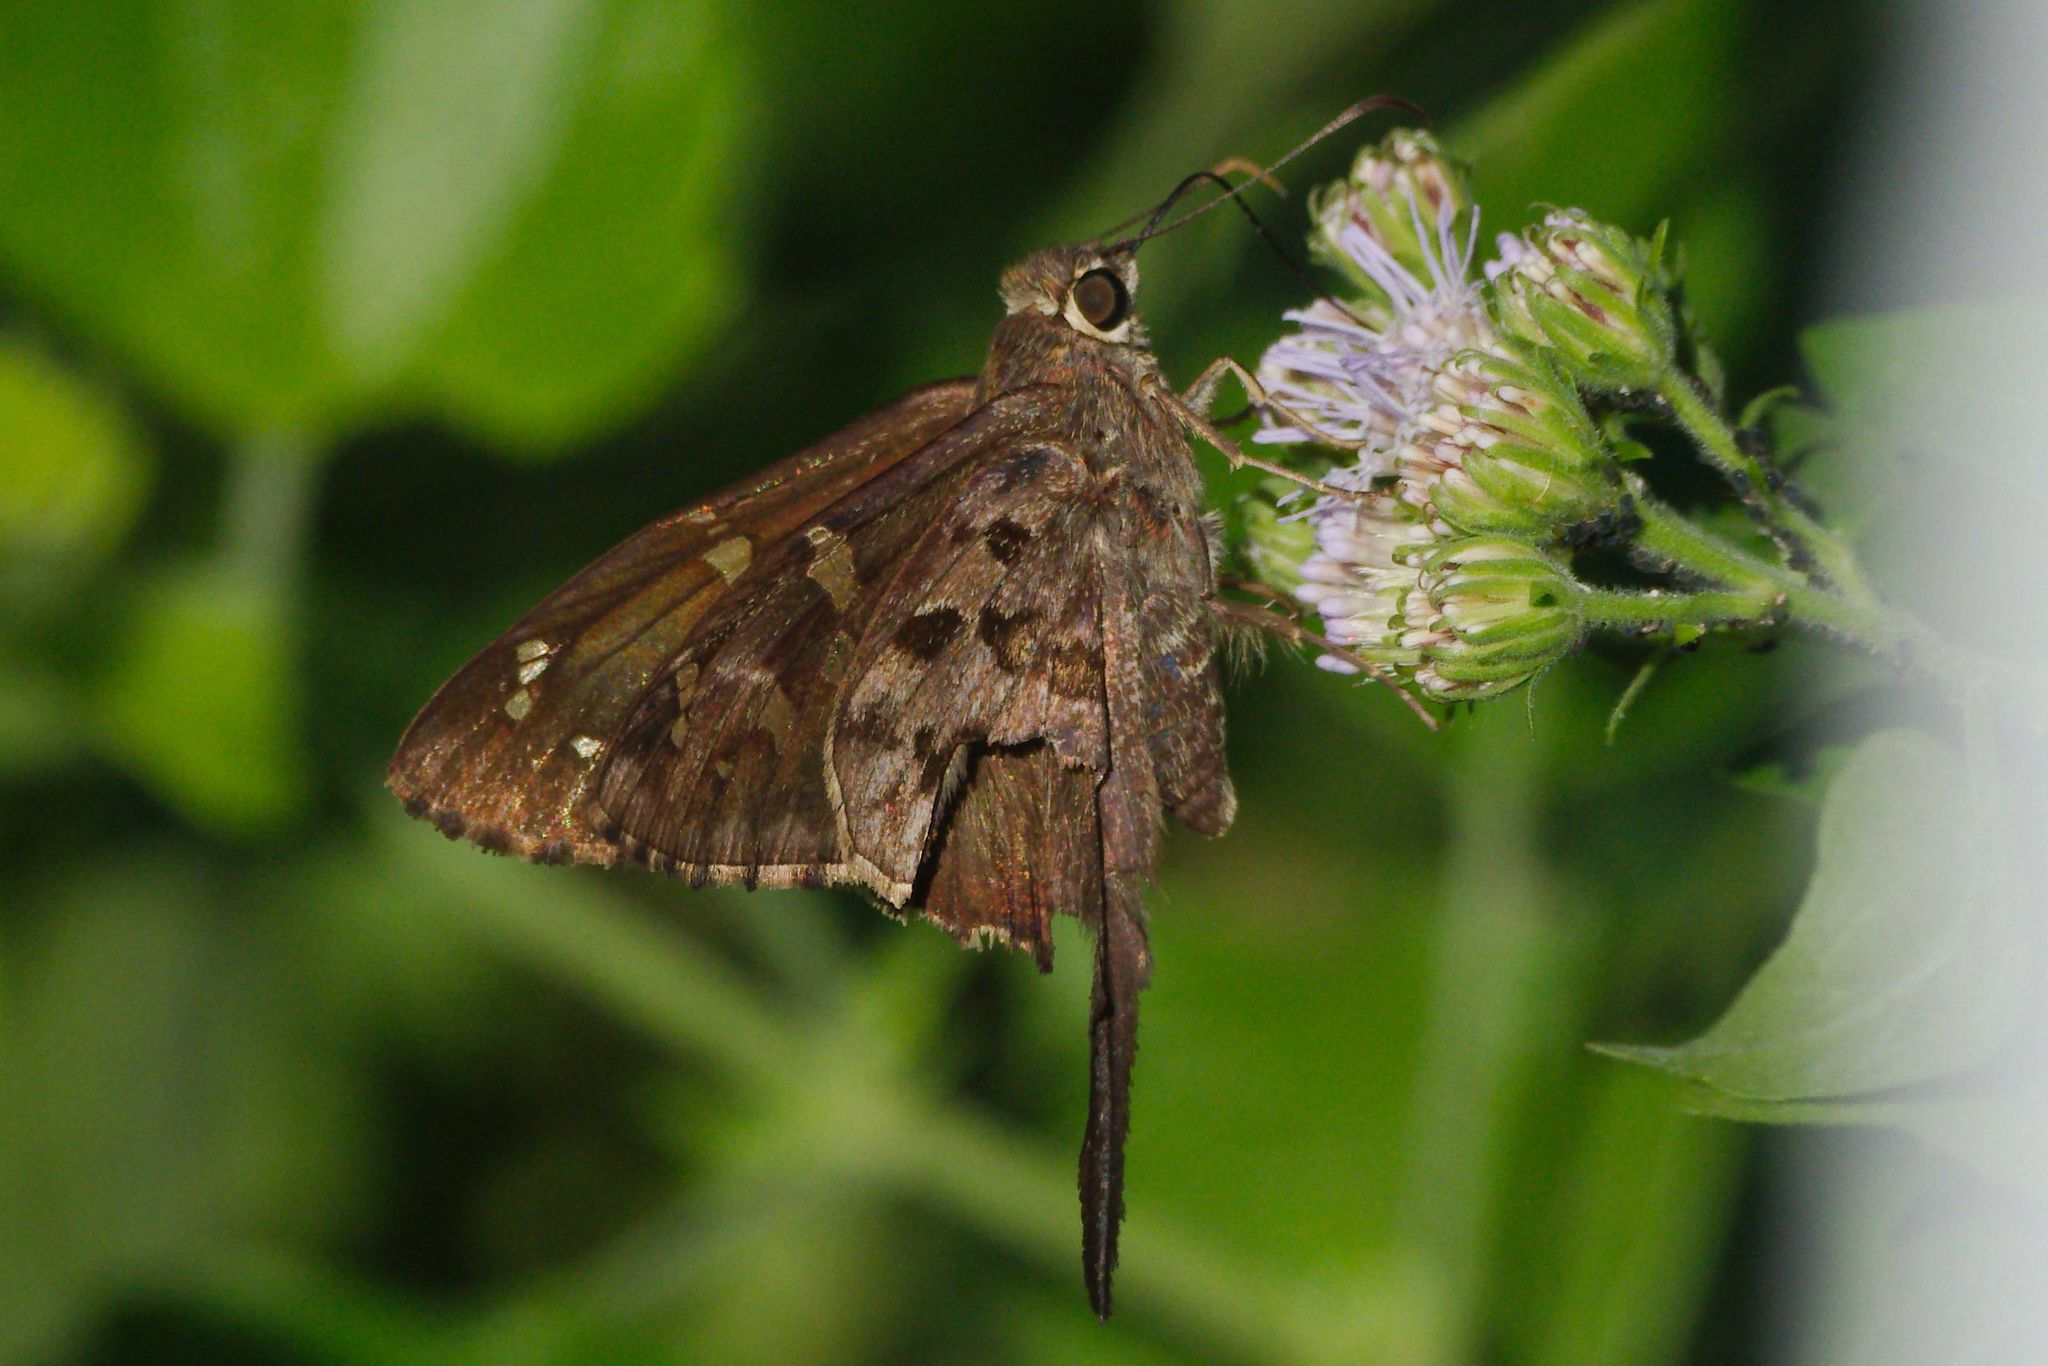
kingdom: Animalia
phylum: Arthropoda
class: Insecta
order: Lepidoptera
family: Hesperiidae
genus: Thorybes
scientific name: Thorybes
